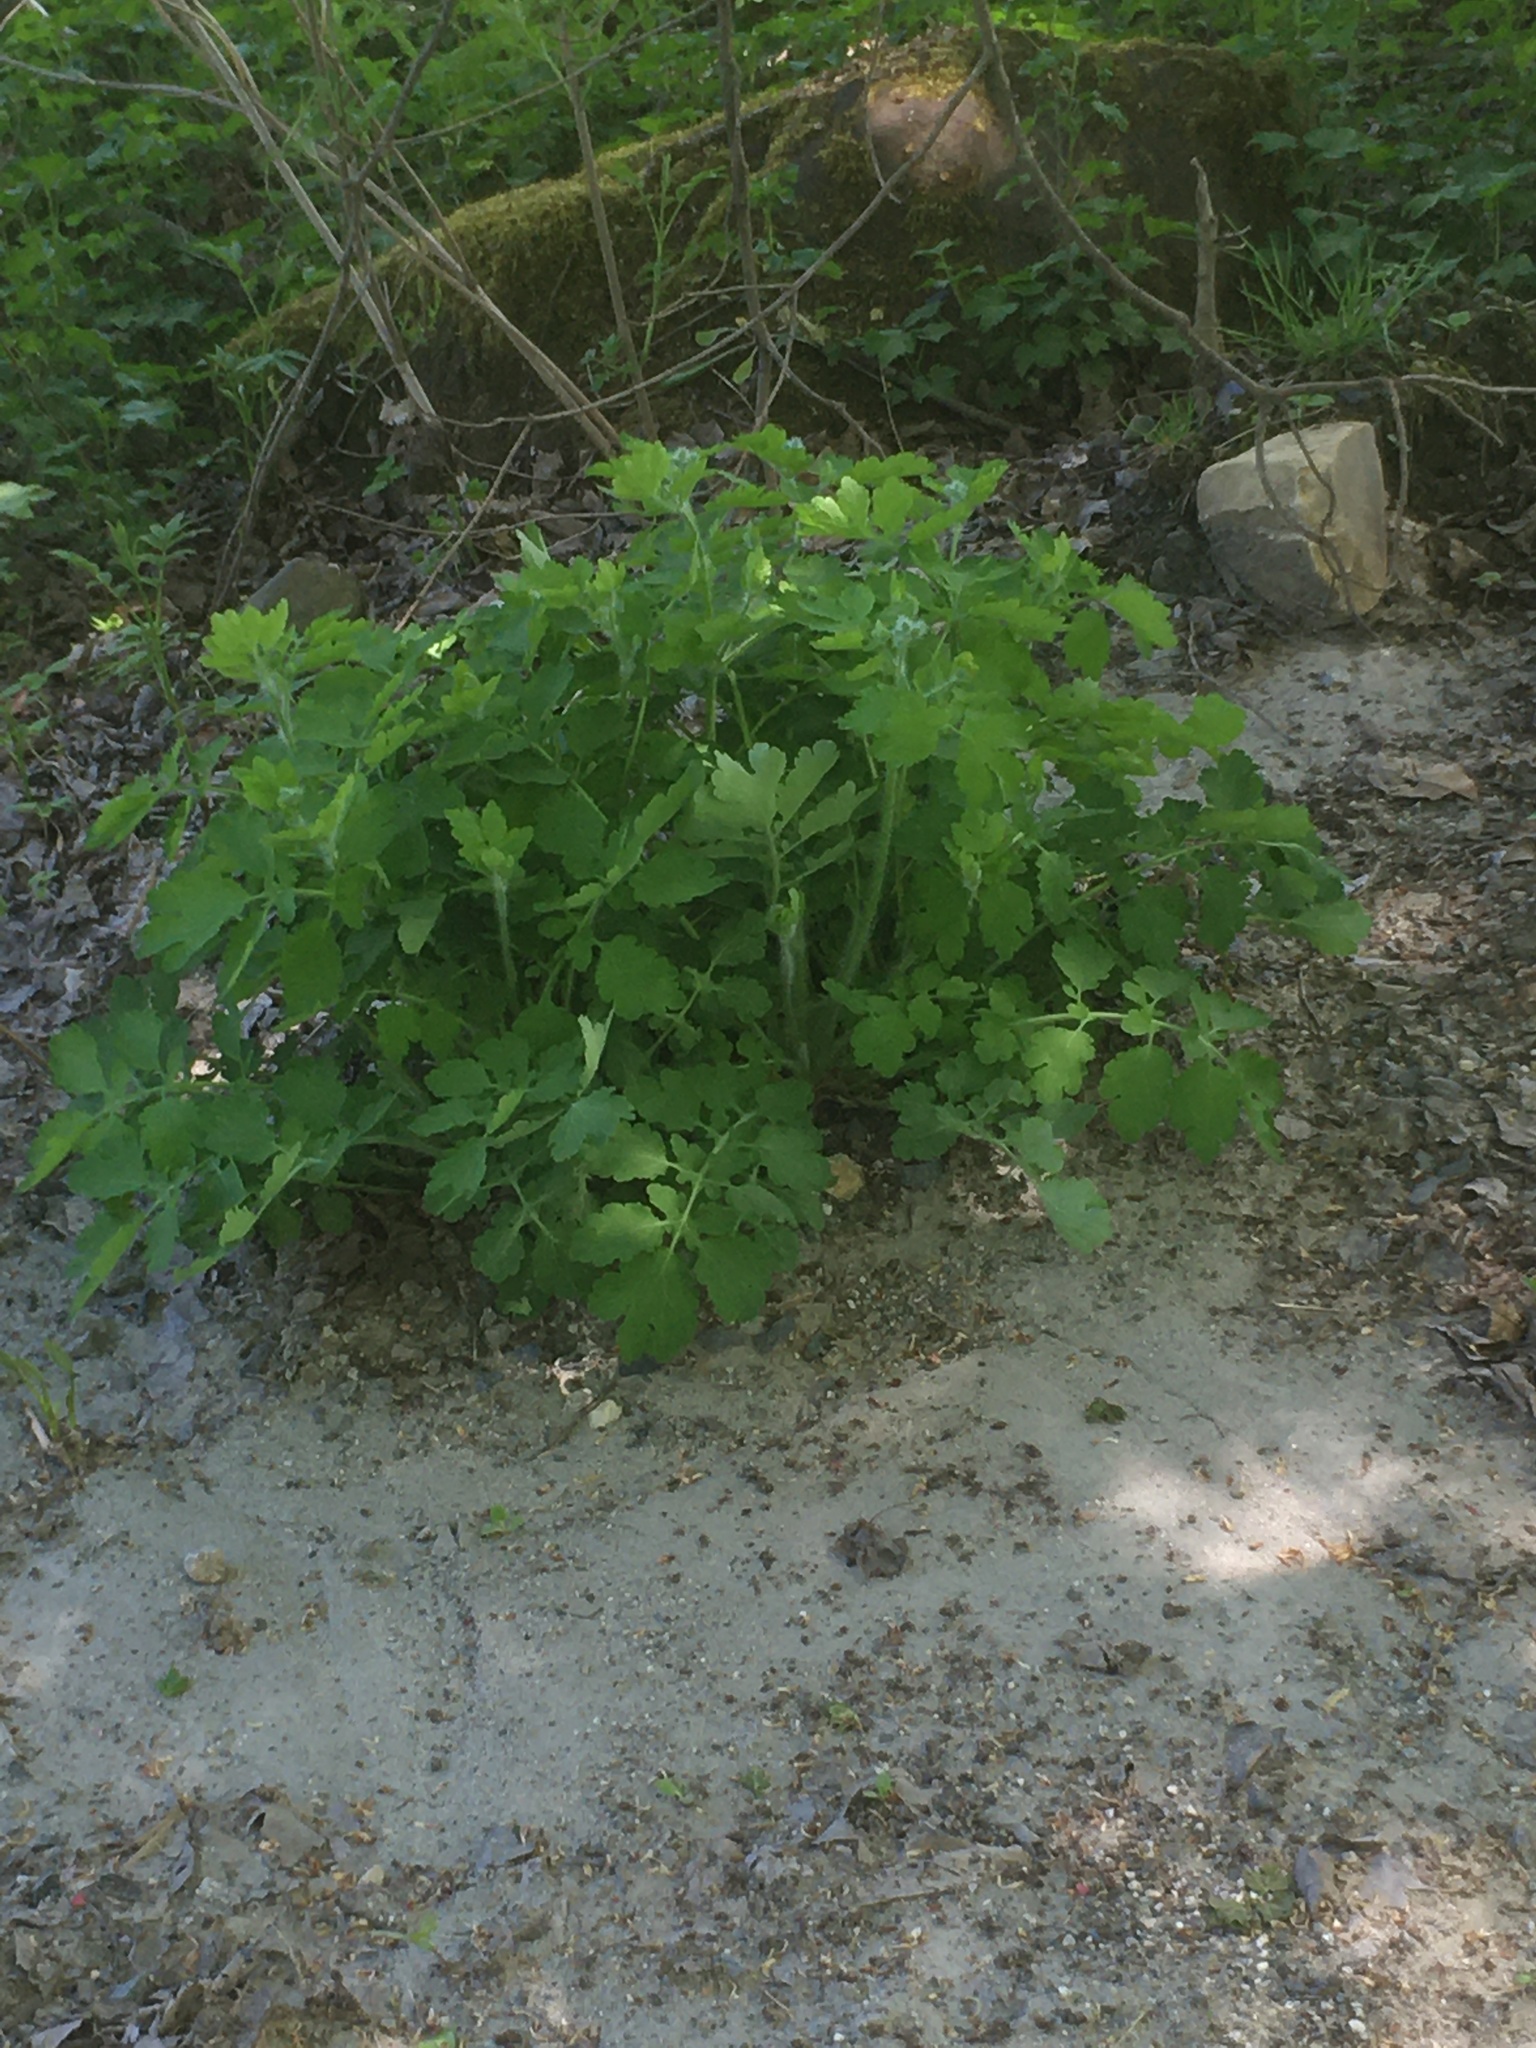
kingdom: Plantae
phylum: Tracheophyta
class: Magnoliopsida
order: Ranunculales
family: Papaveraceae
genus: Chelidonium
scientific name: Chelidonium majus
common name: Greater celandine
